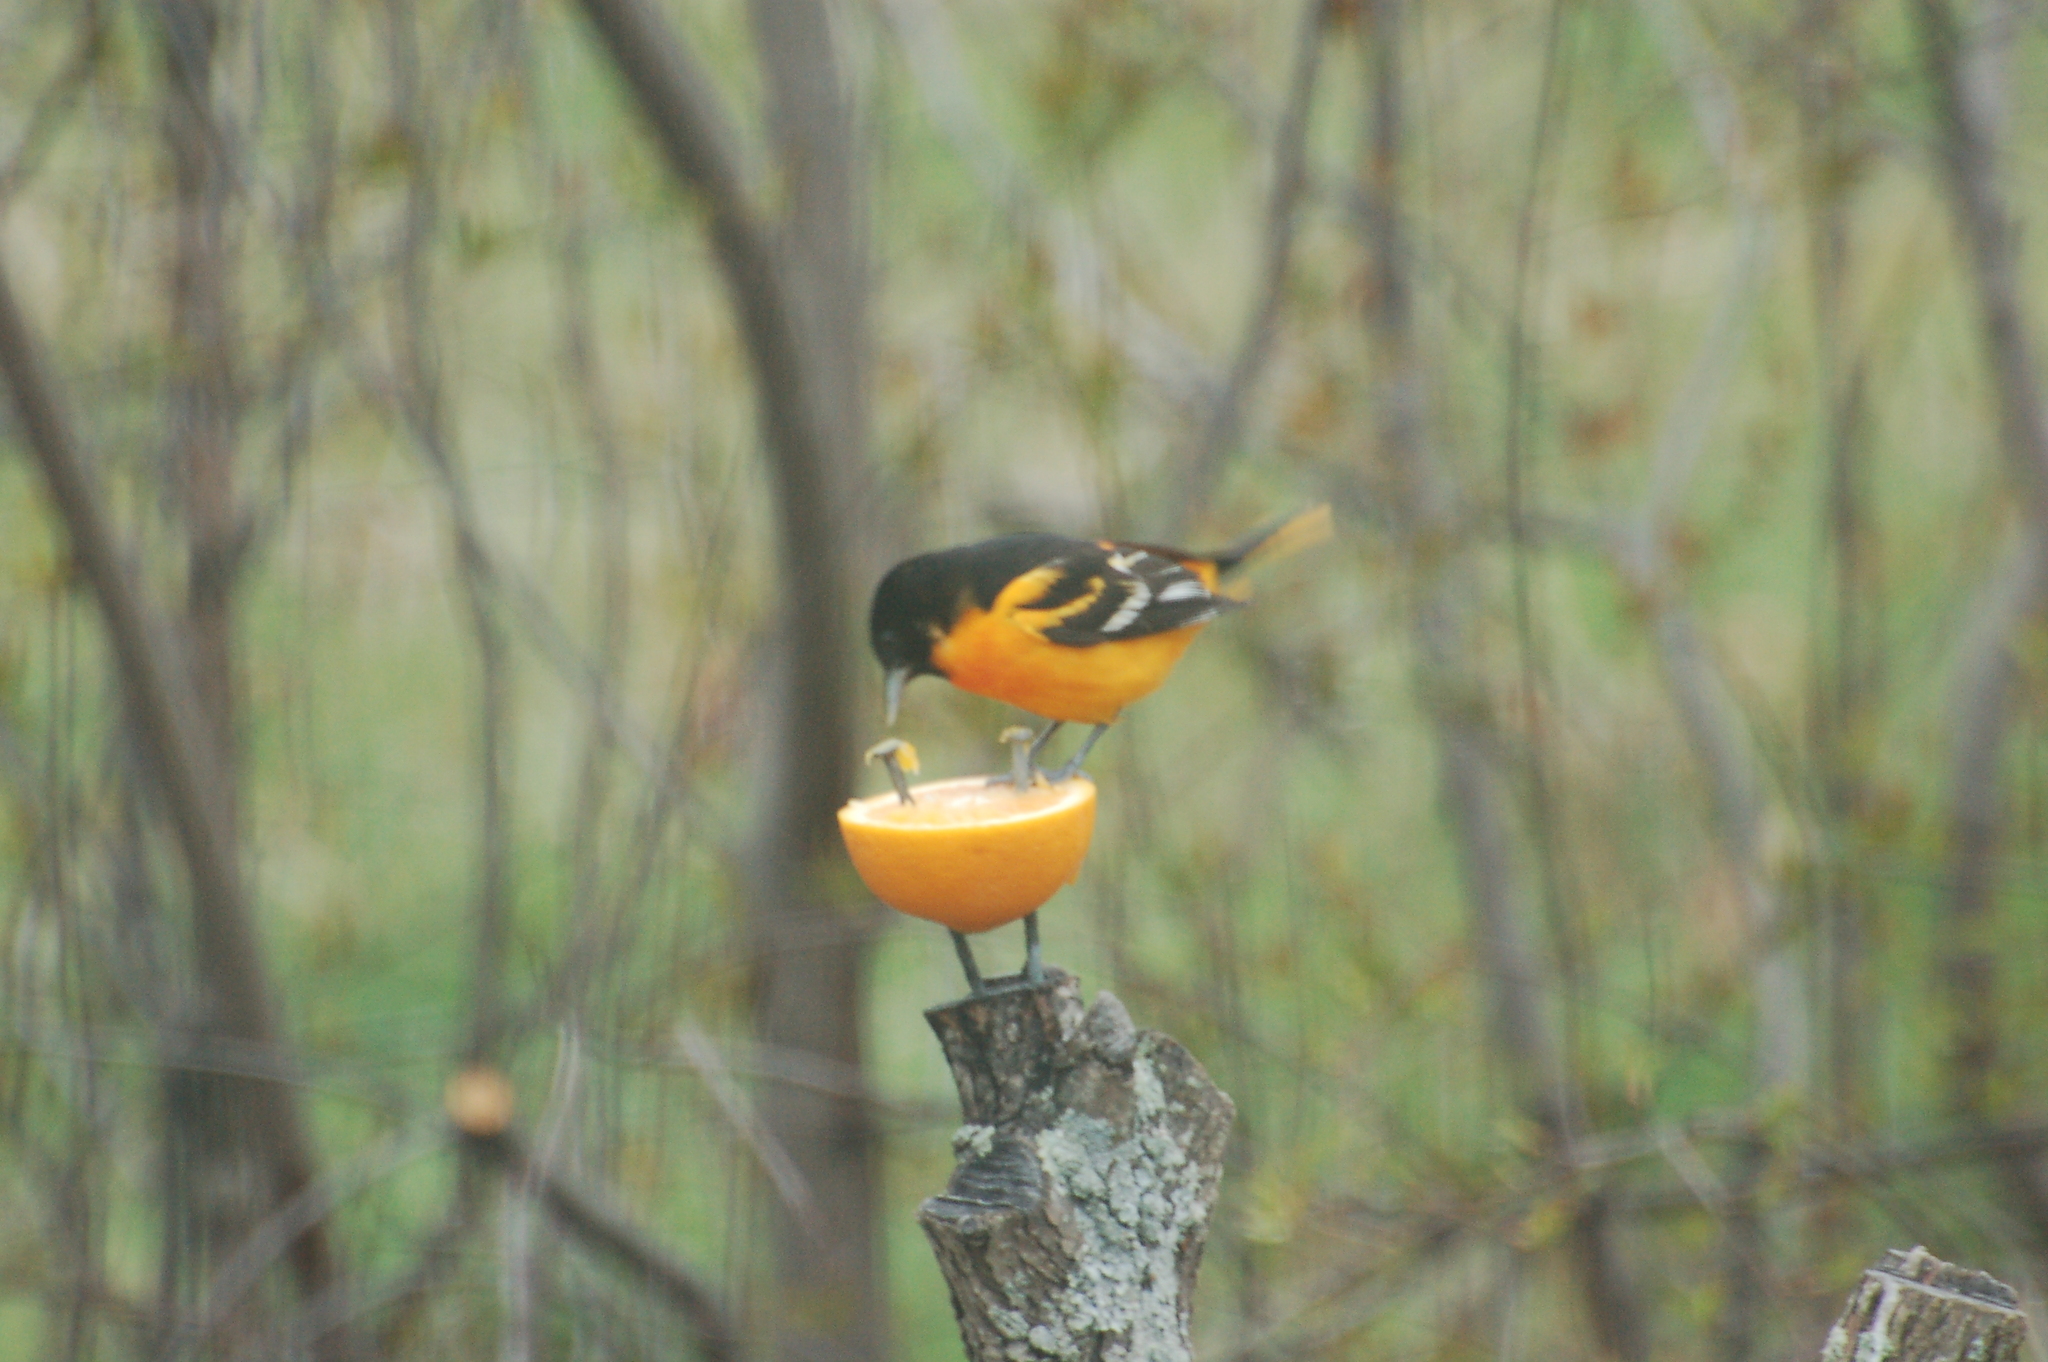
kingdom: Animalia
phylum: Chordata
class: Aves
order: Passeriformes
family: Icteridae
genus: Icterus
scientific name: Icterus galbula
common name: Baltimore oriole
